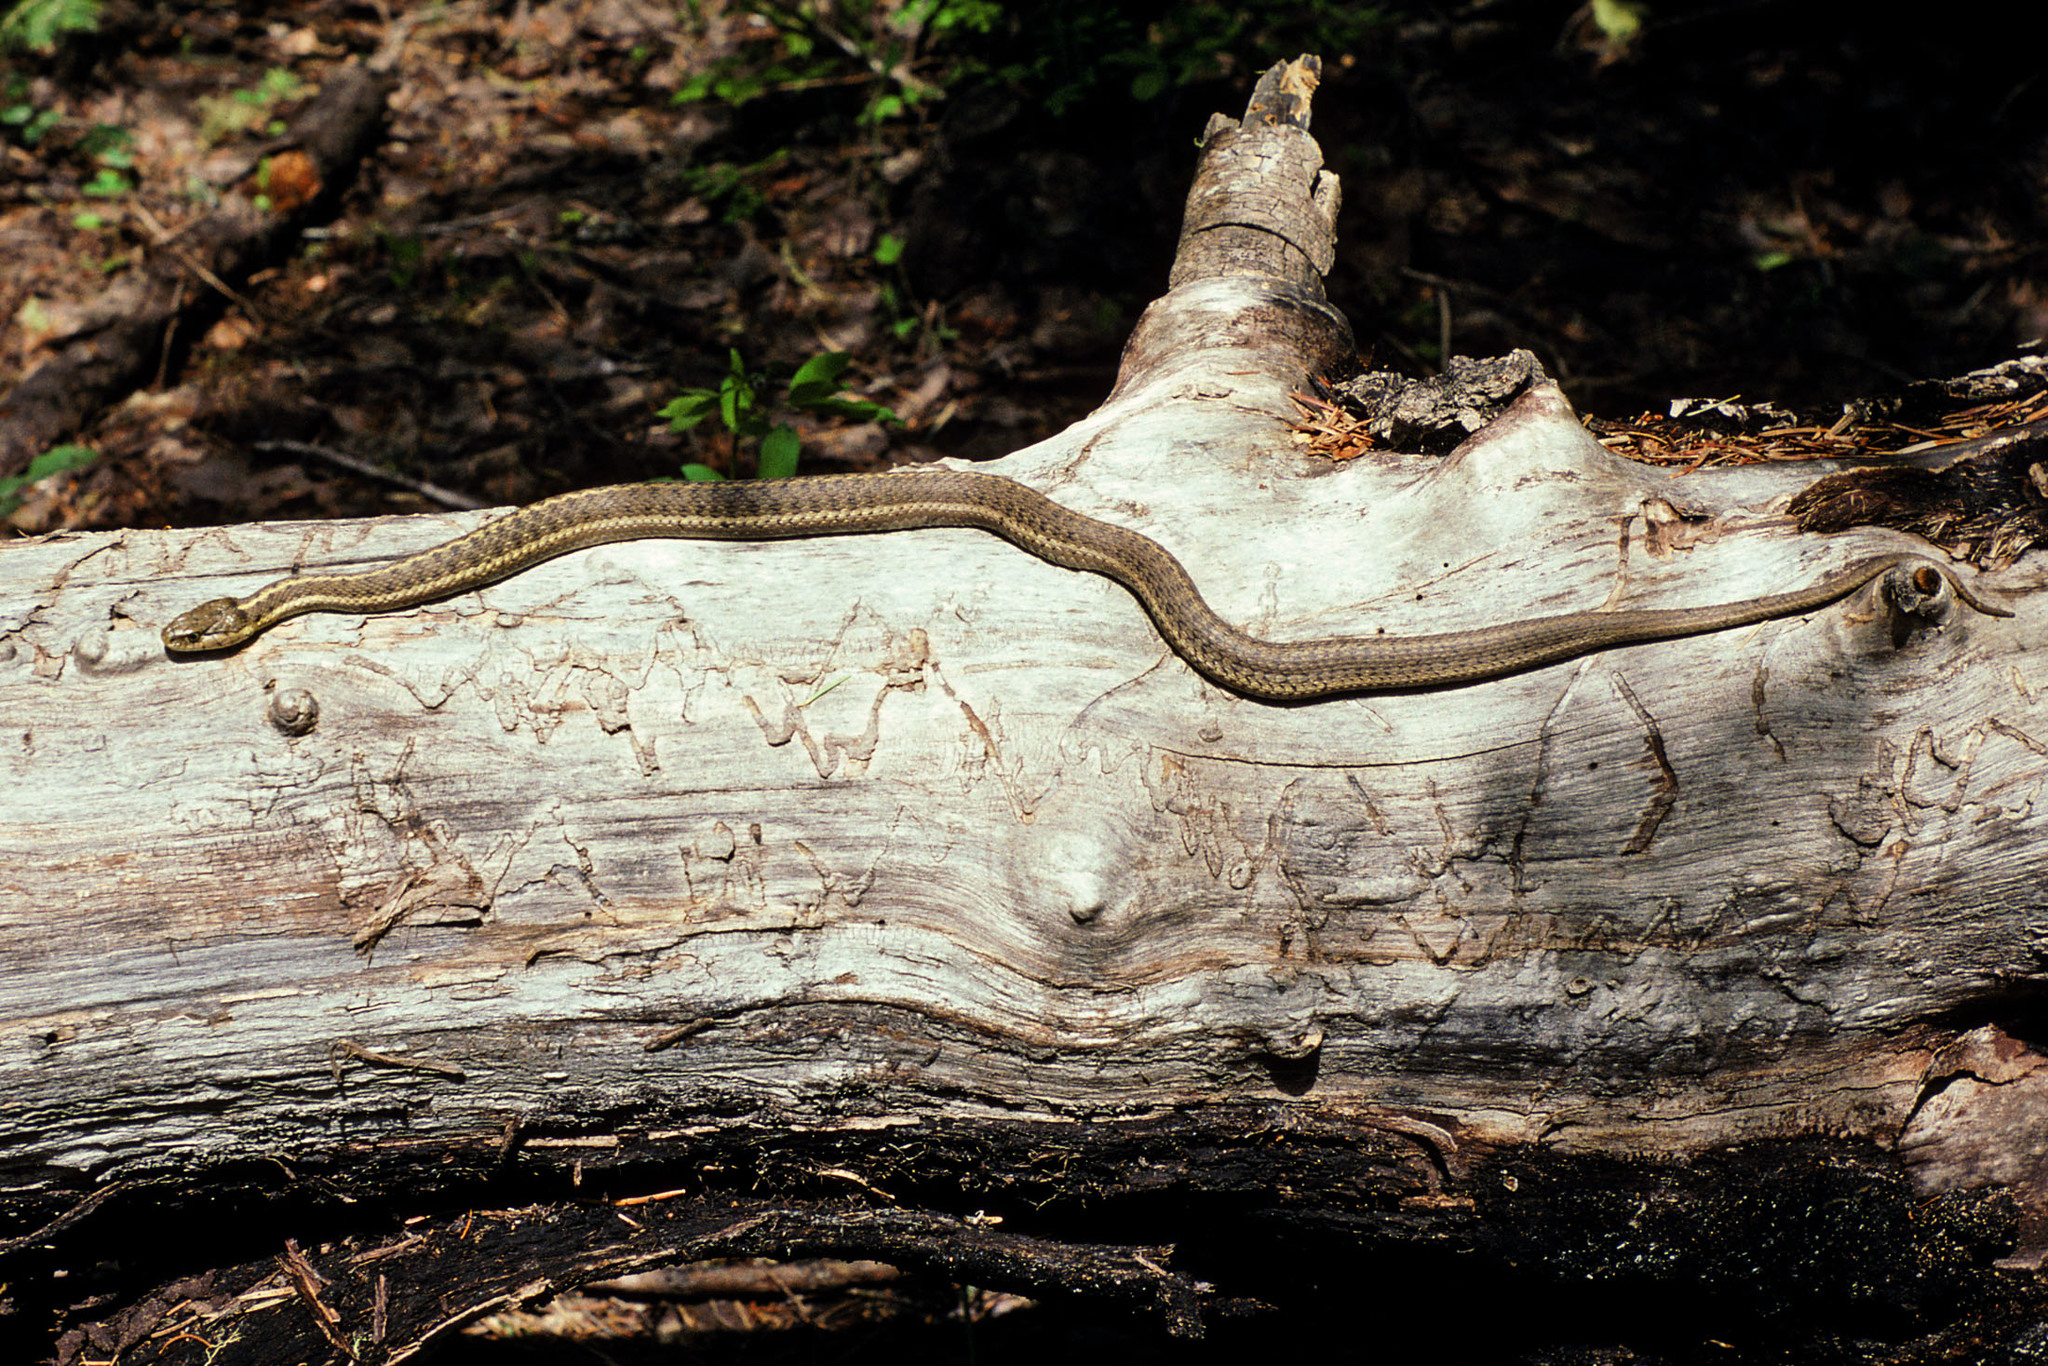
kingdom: Animalia
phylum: Chordata
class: Squamata
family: Colubridae
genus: Thamnophis
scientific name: Thamnophis elegans
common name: Western terrestrial garter snake
